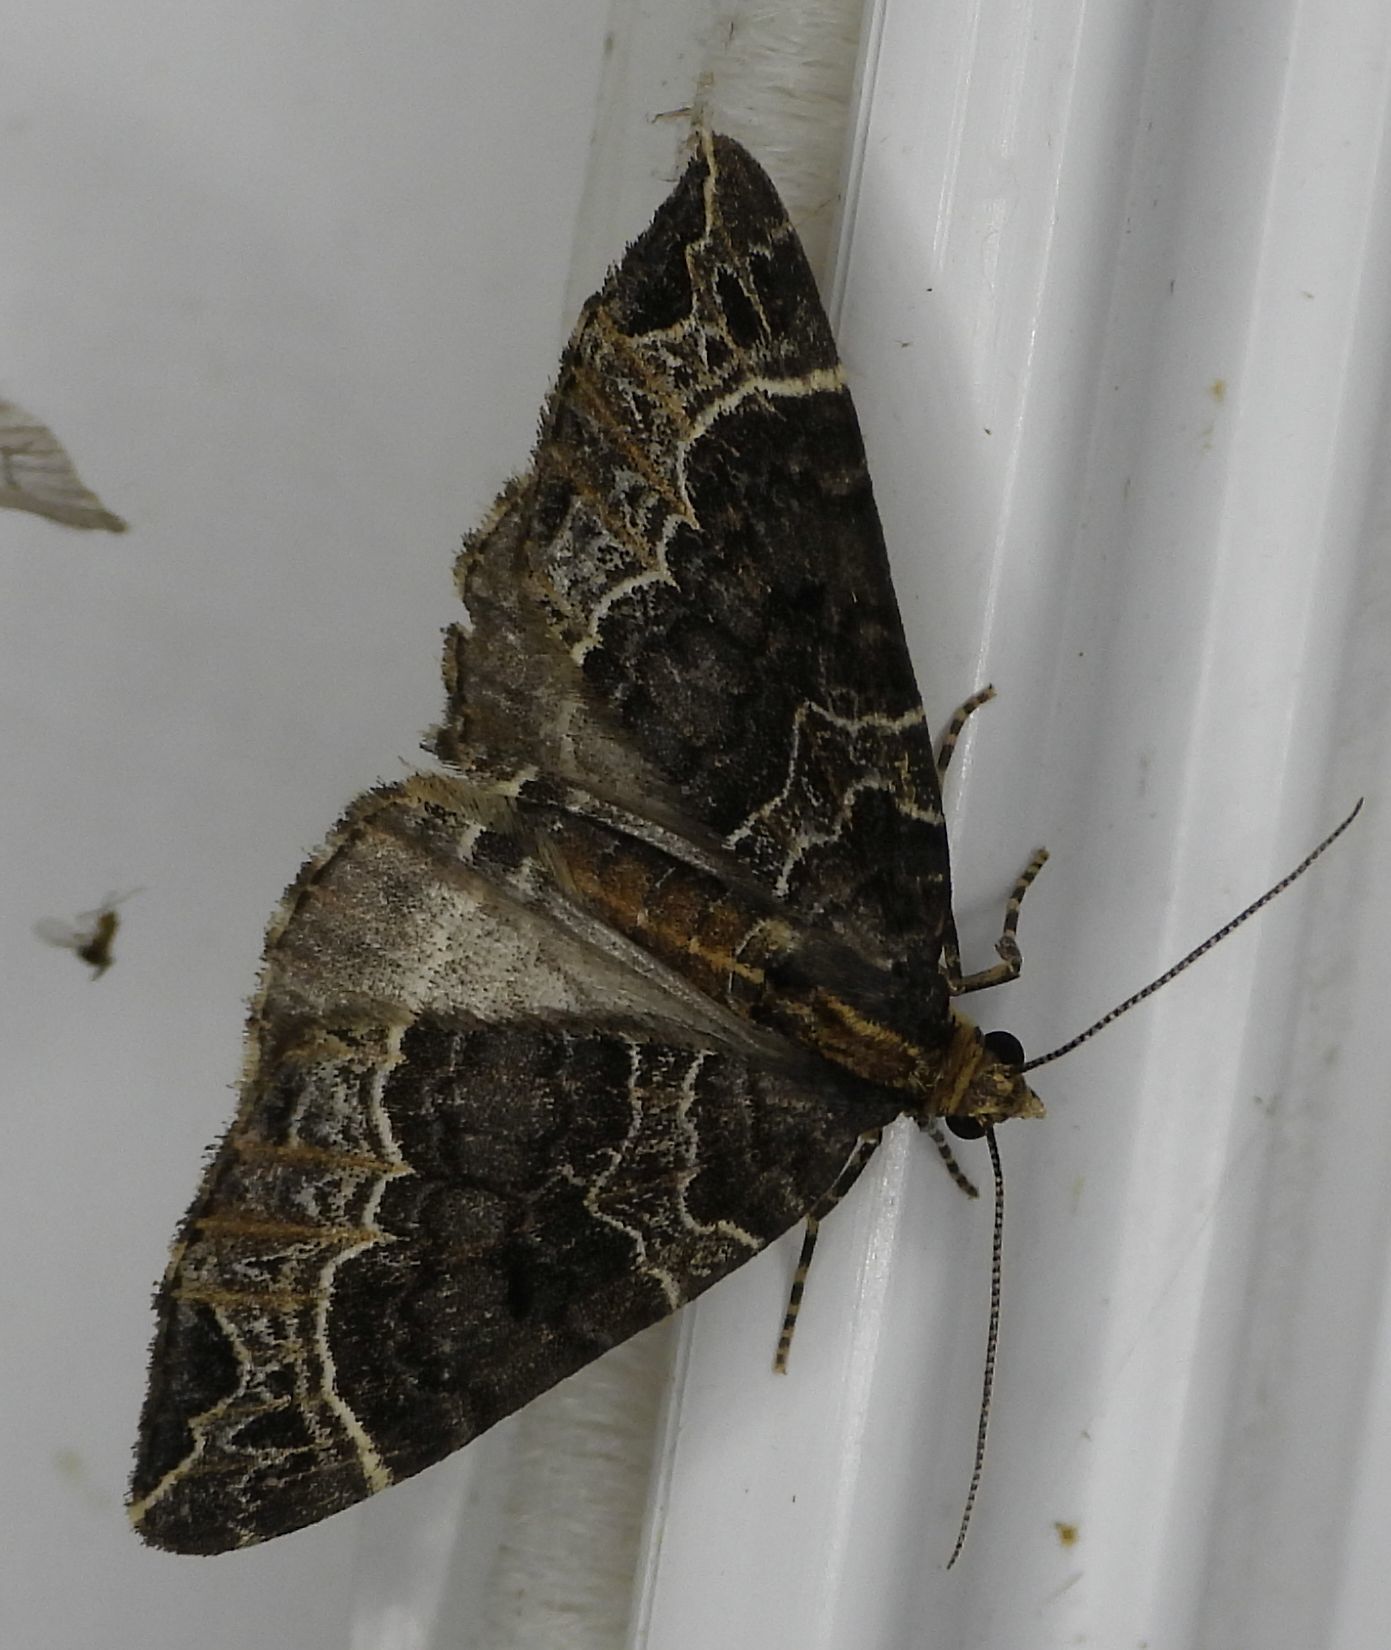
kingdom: Animalia
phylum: Arthropoda
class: Insecta
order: Lepidoptera
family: Geometridae
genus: Ecliptopera
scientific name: Ecliptopera silaceata
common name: Small phoenix
